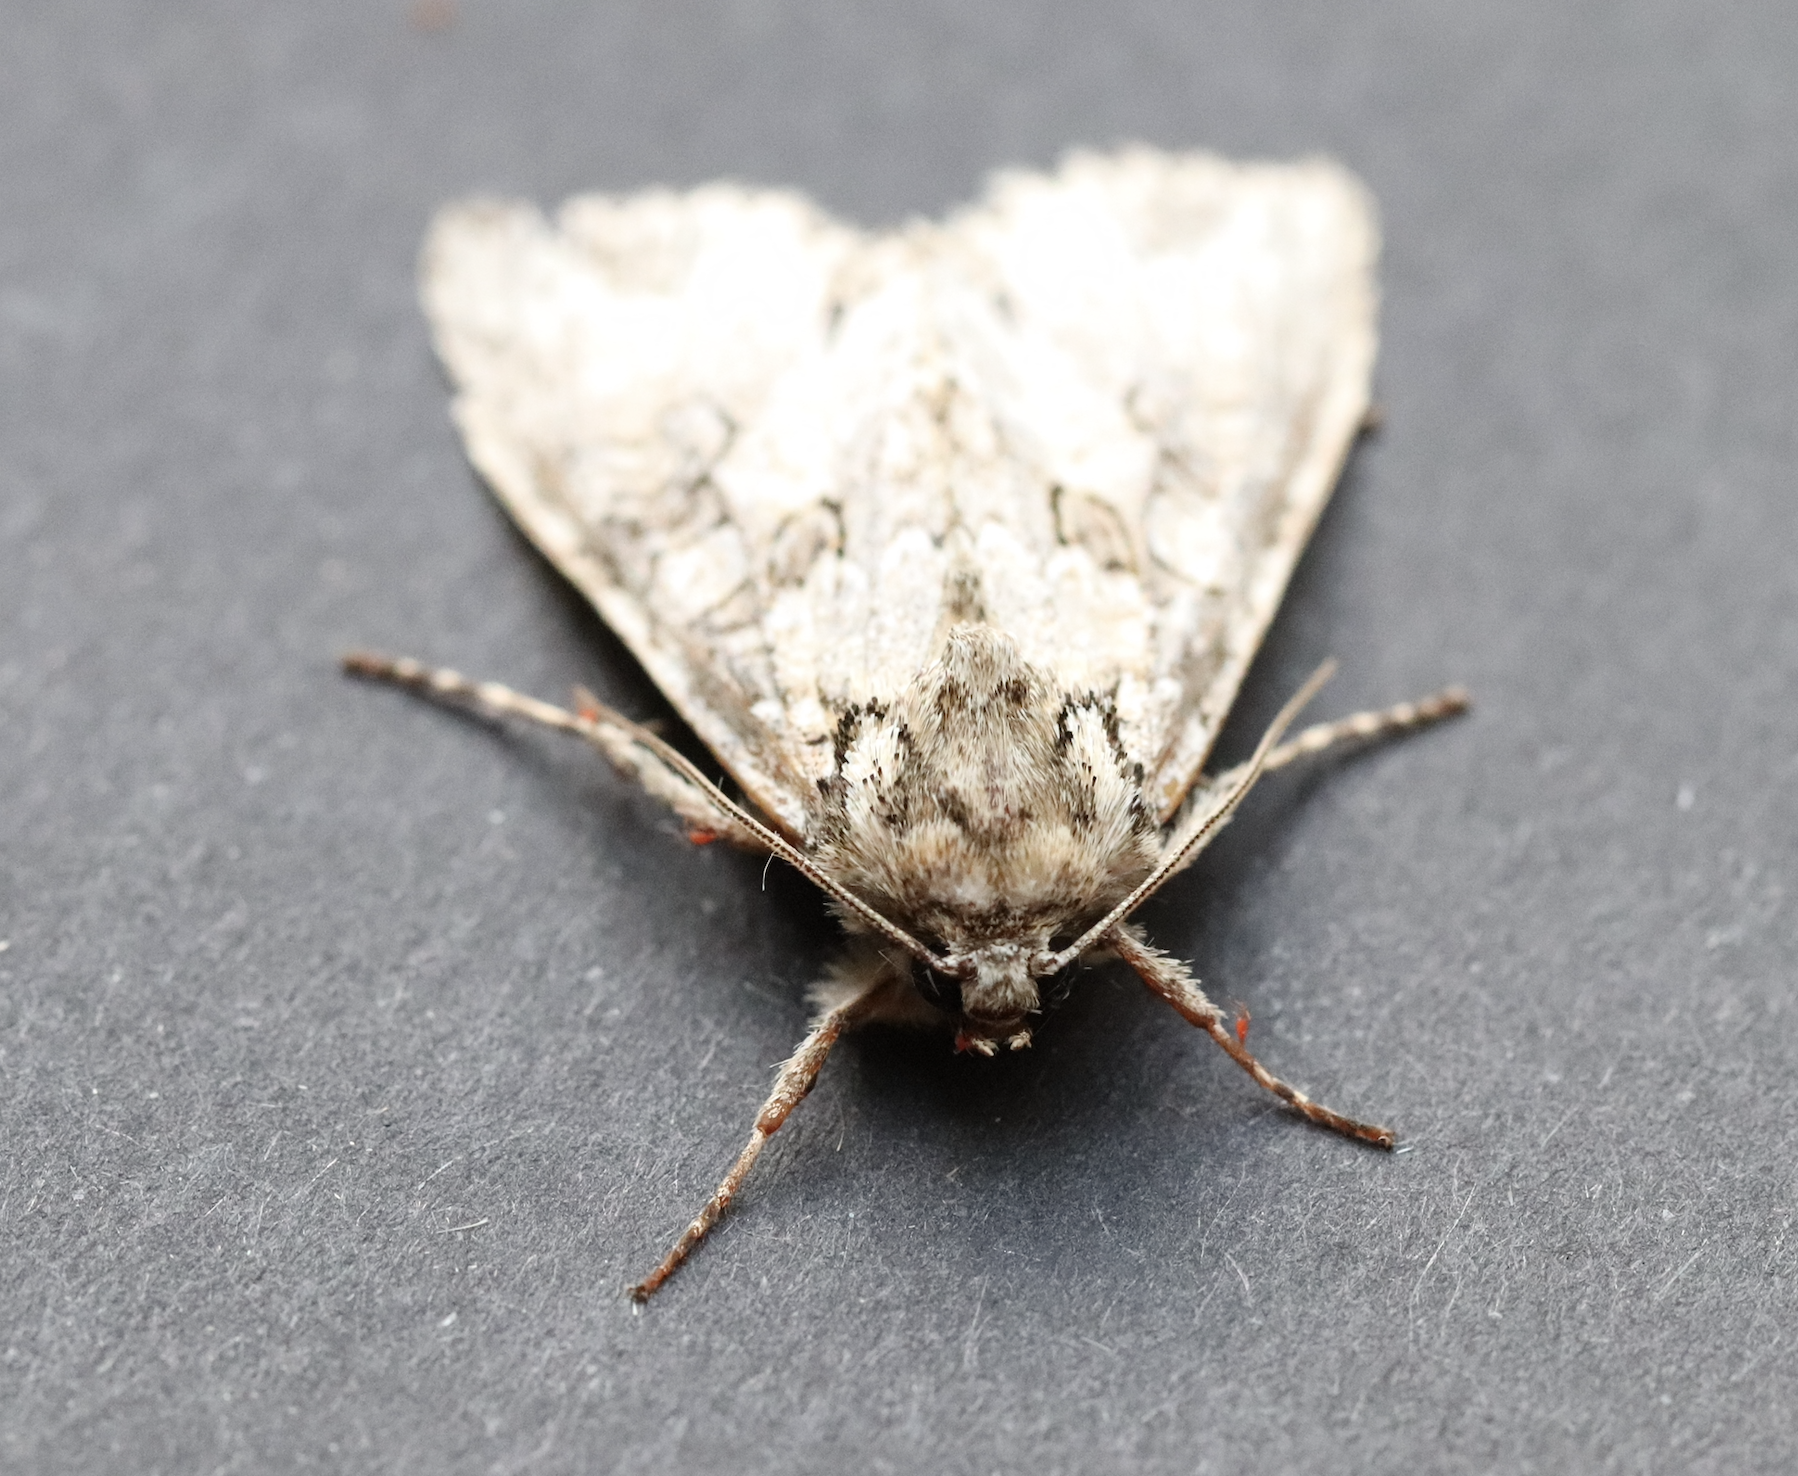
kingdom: Animalia
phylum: Arthropoda
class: Insecta
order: Lepidoptera
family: Noctuidae
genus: Polia
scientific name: Polia nebulosa
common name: Grey arches
